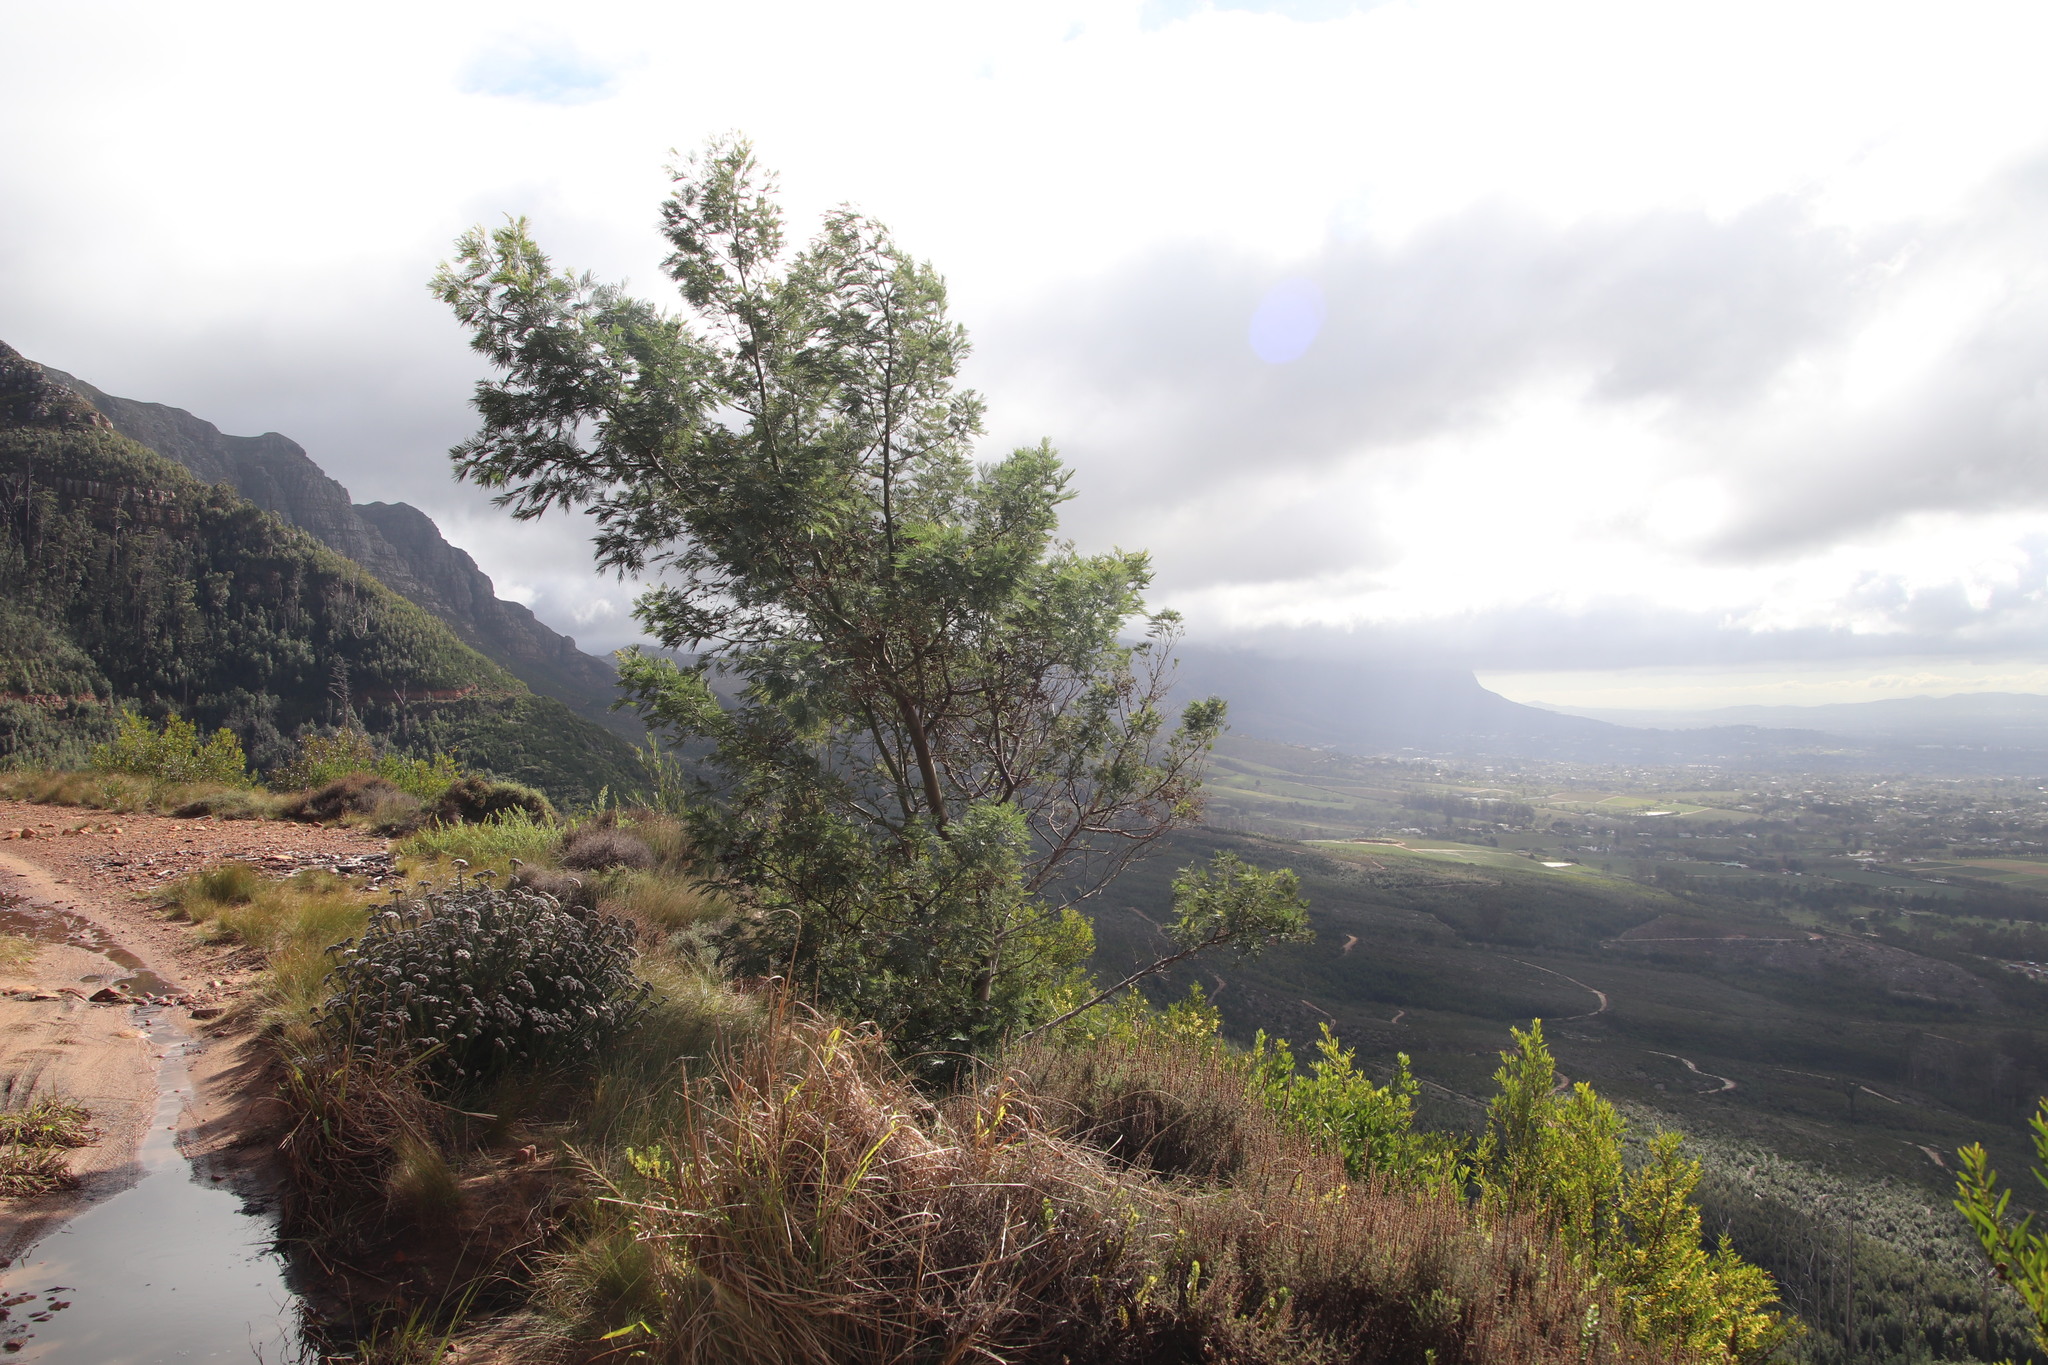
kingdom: Plantae
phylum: Tracheophyta
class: Magnoliopsida
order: Fabales
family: Fabaceae
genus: Acacia
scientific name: Acacia mearnsii
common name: Black wattle
